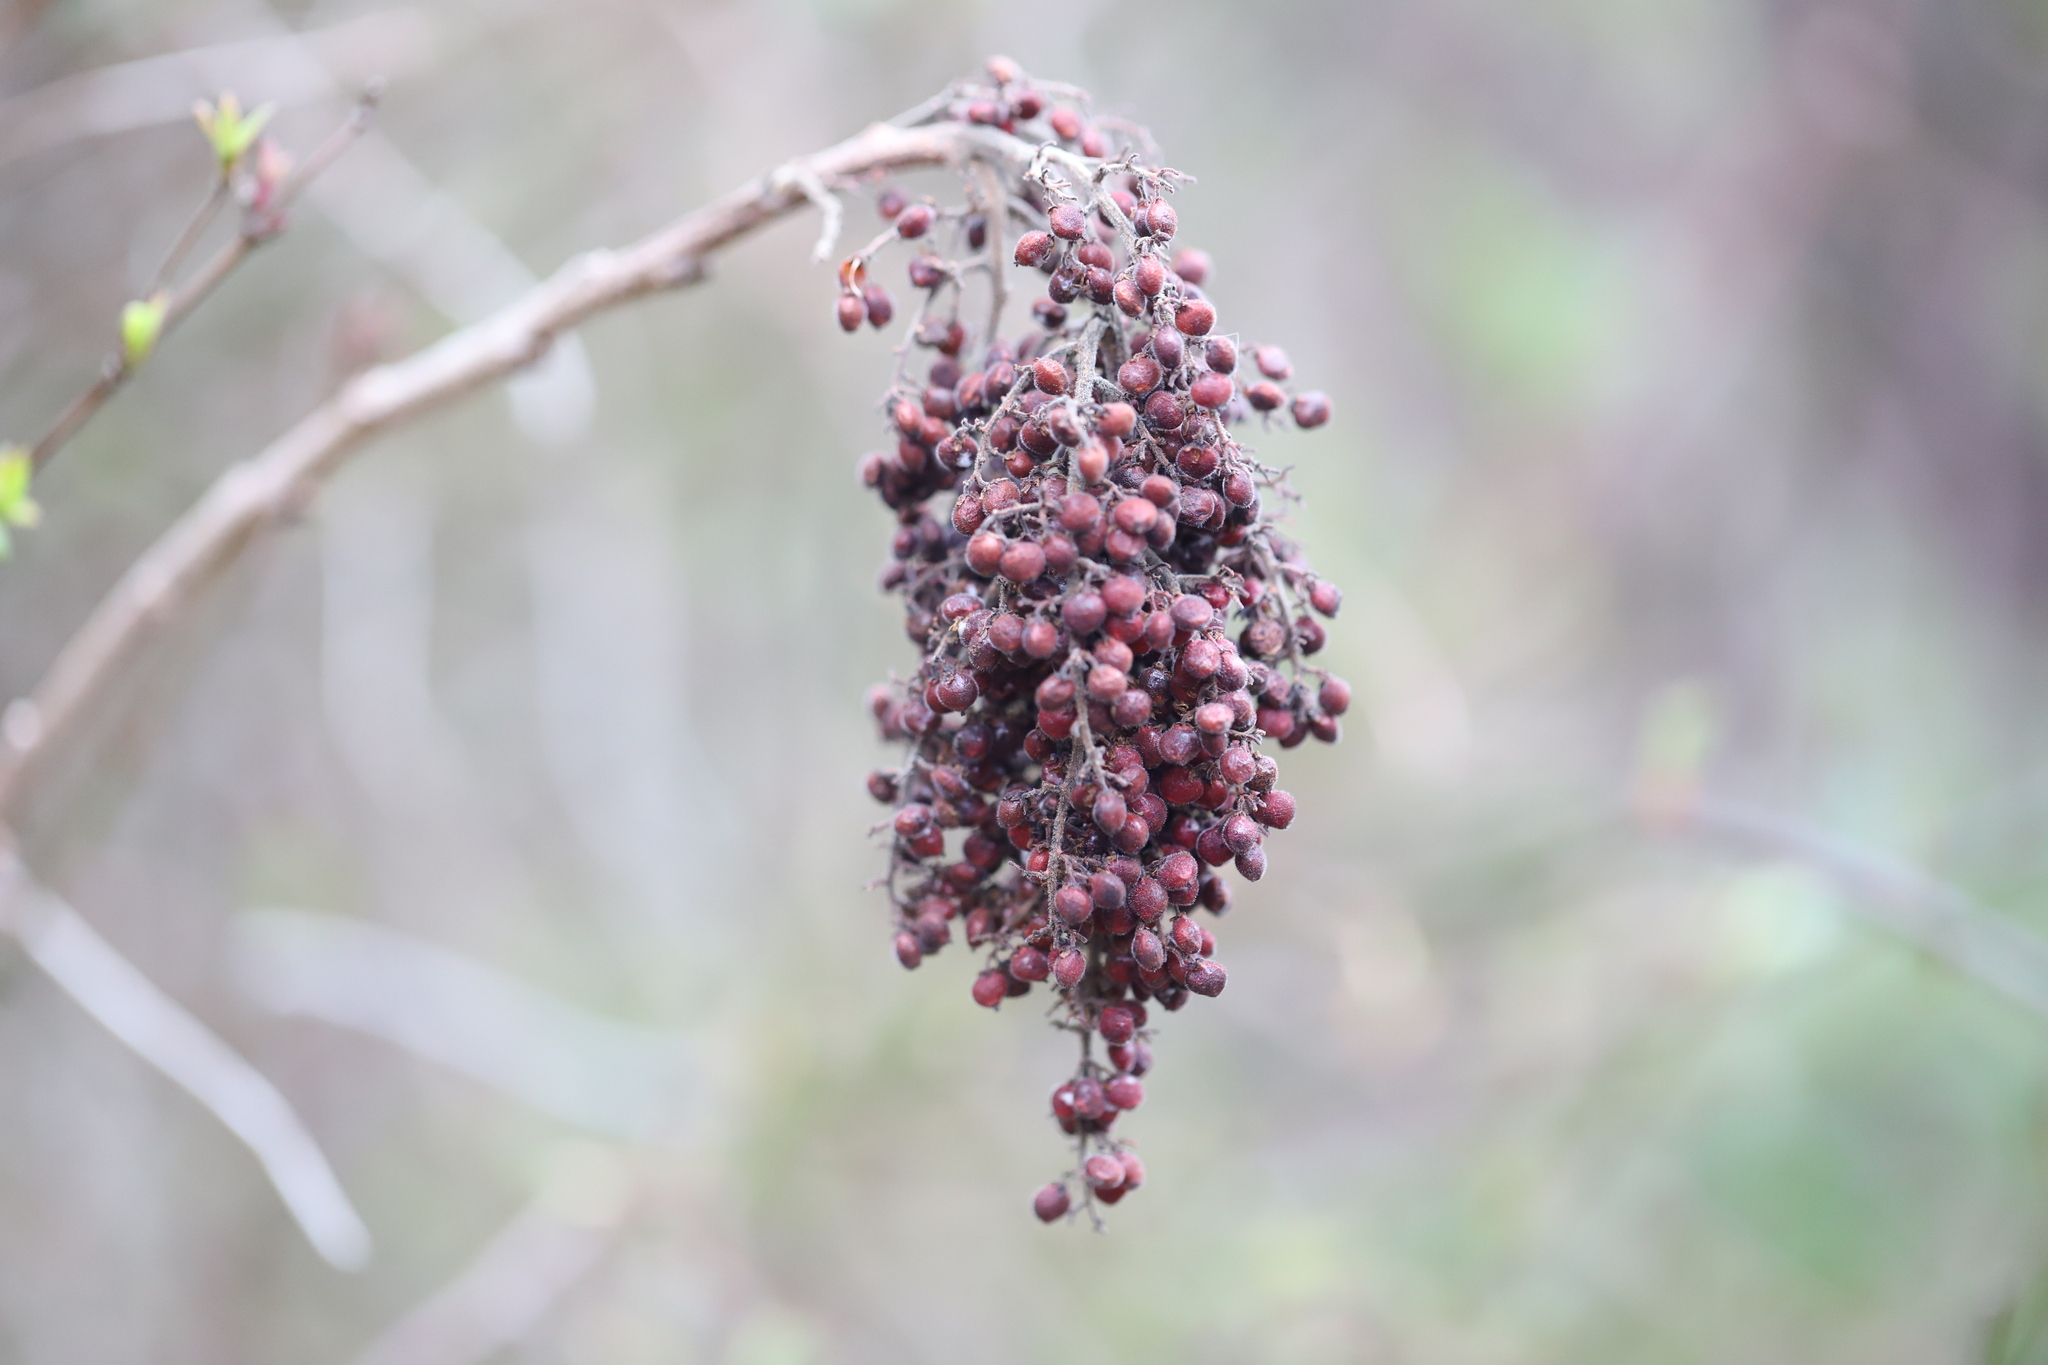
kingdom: Plantae
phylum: Tracheophyta
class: Magnoliopsida
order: Sapindales
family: Anacardiaceae
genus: Rhus
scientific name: Rhus copallina
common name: Shining sumac
